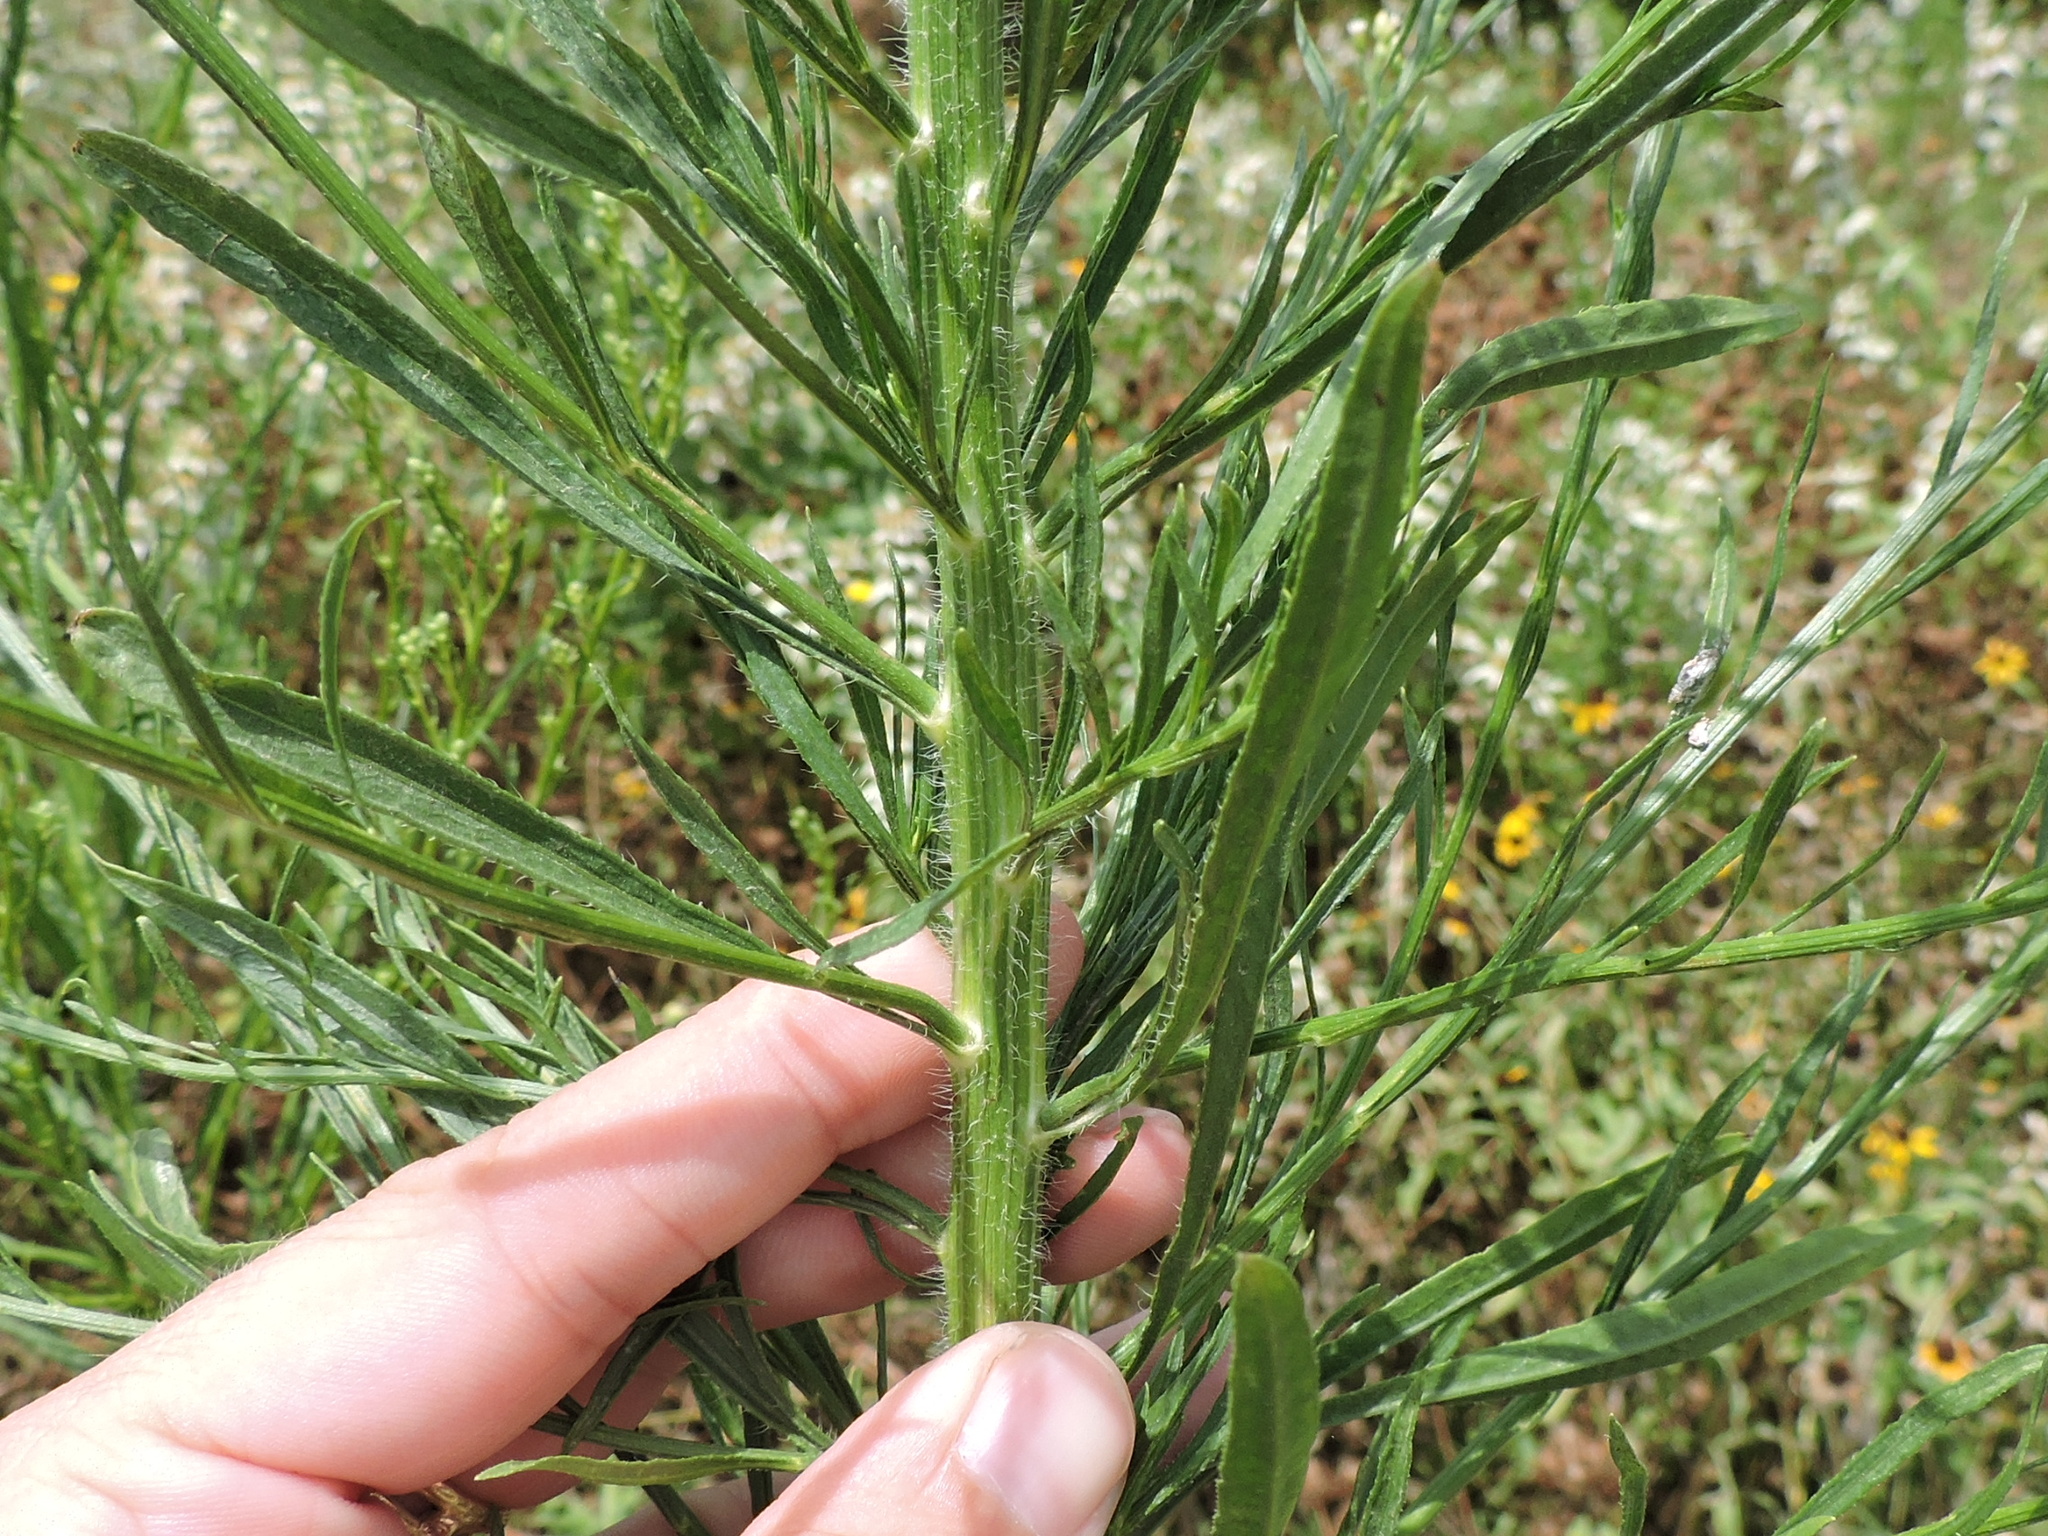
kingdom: Plantae
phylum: Tracheophyta
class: Magnoliopsida
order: Asterales
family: Asteraceae
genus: Erigeron
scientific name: Erigeron canadensis
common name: Canadian fleabane
